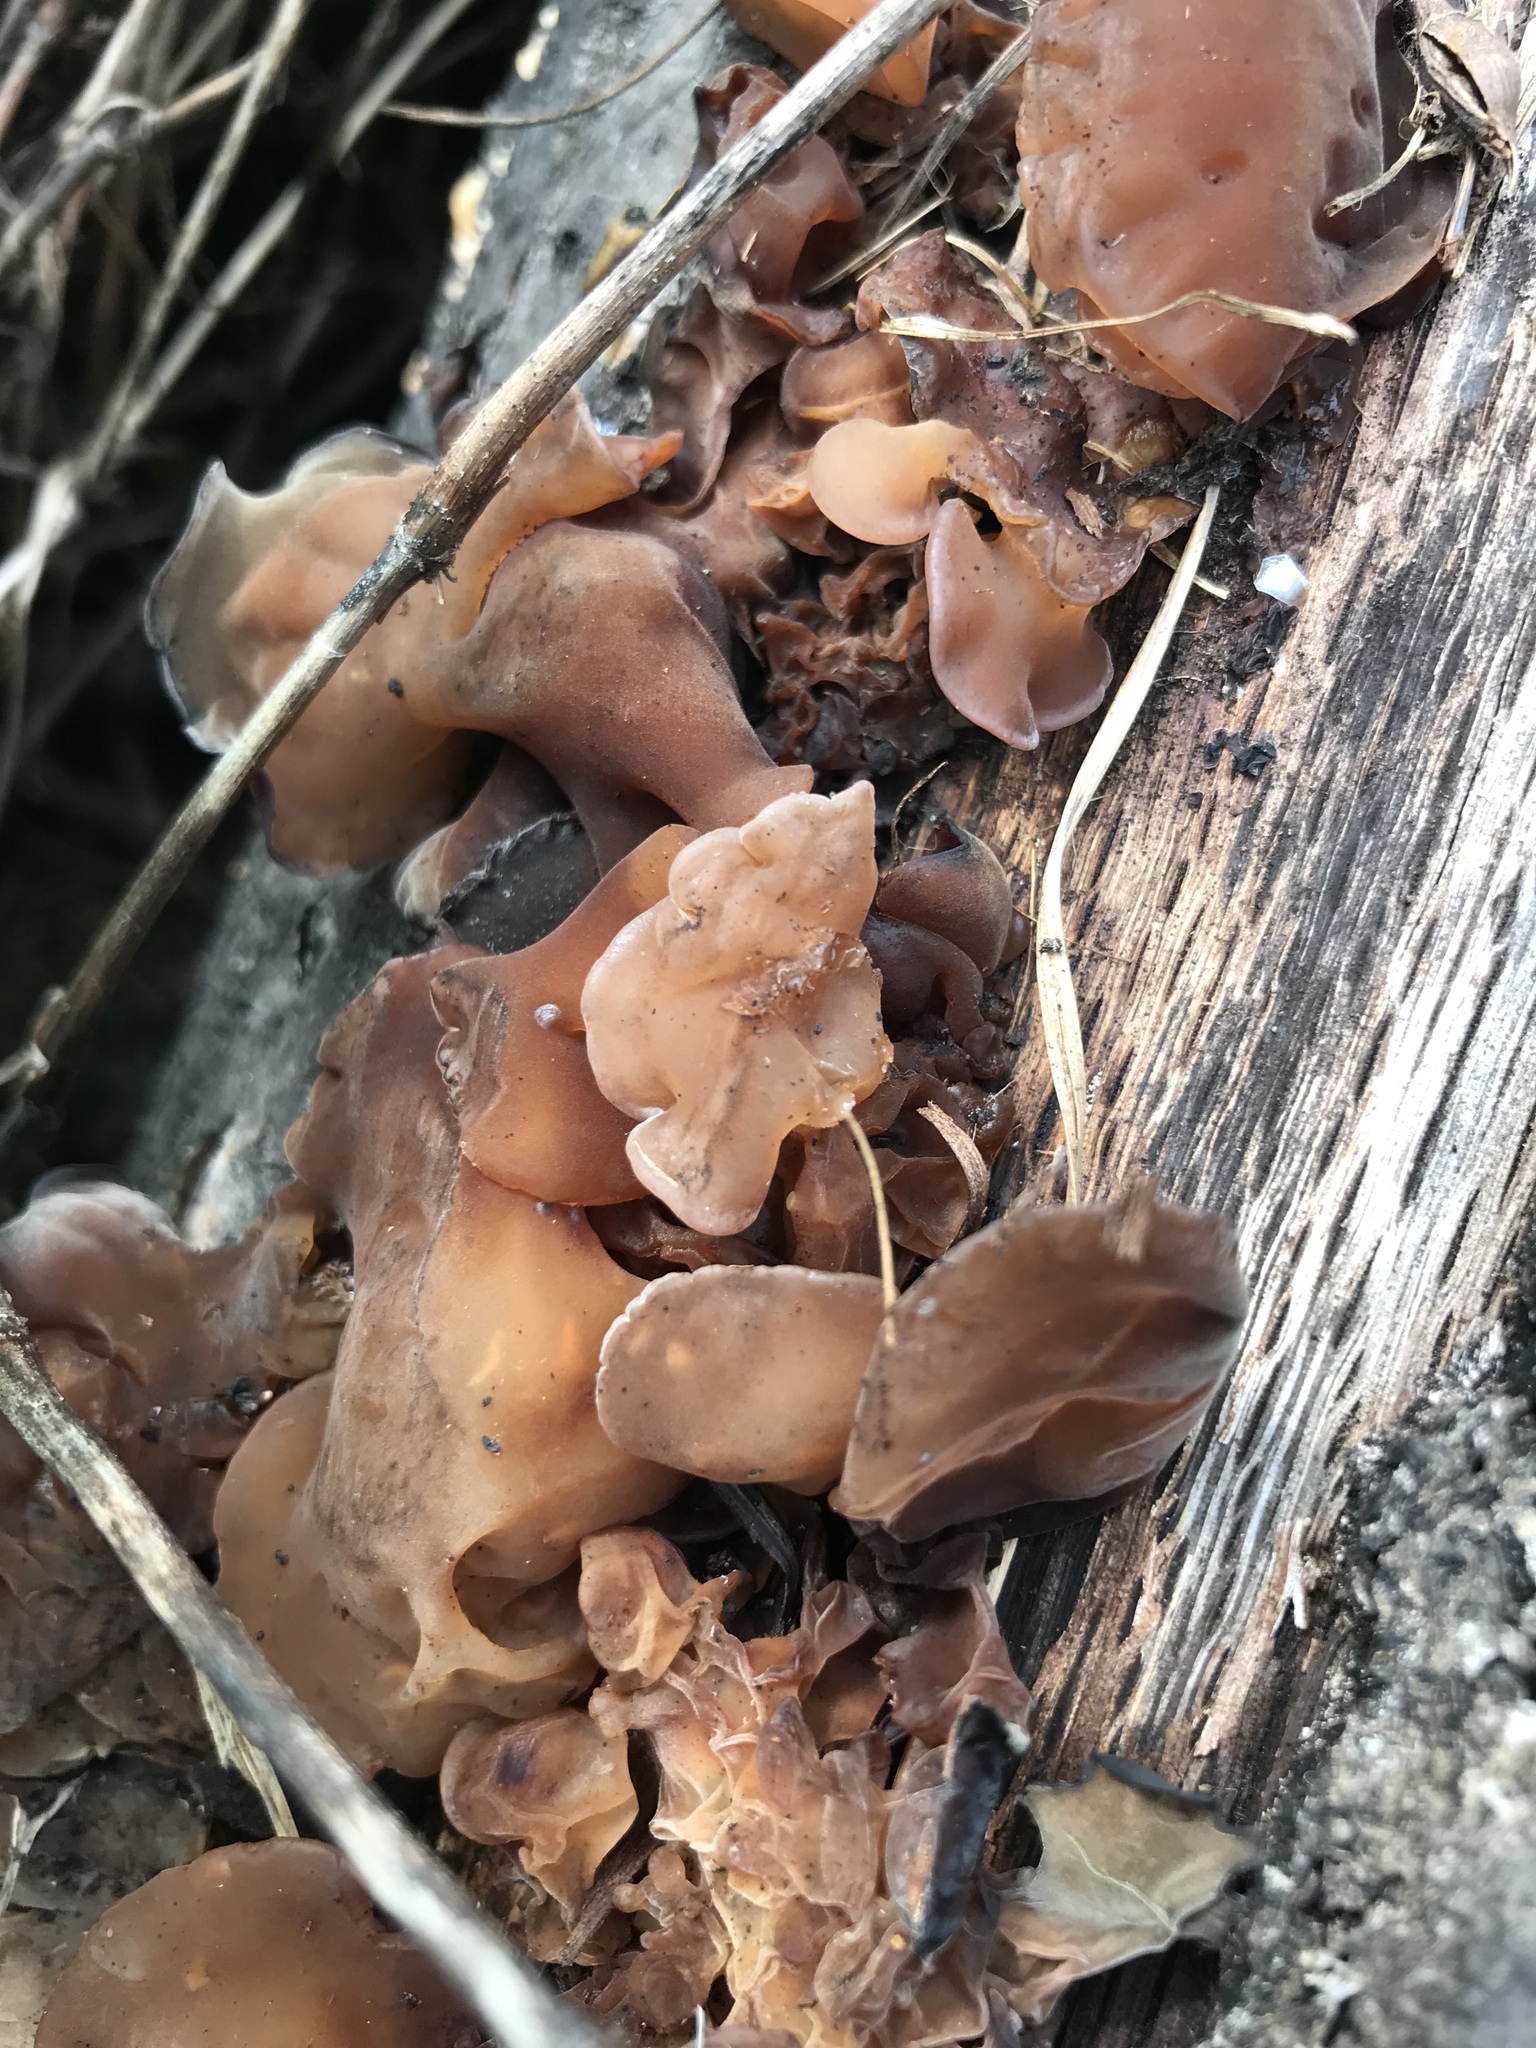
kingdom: Fungi
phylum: Basidiomycota
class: Agaricomycetes
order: Auriculariales
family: Auriculariaceae
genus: Auricularia
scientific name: Auricularia angiospermarum
